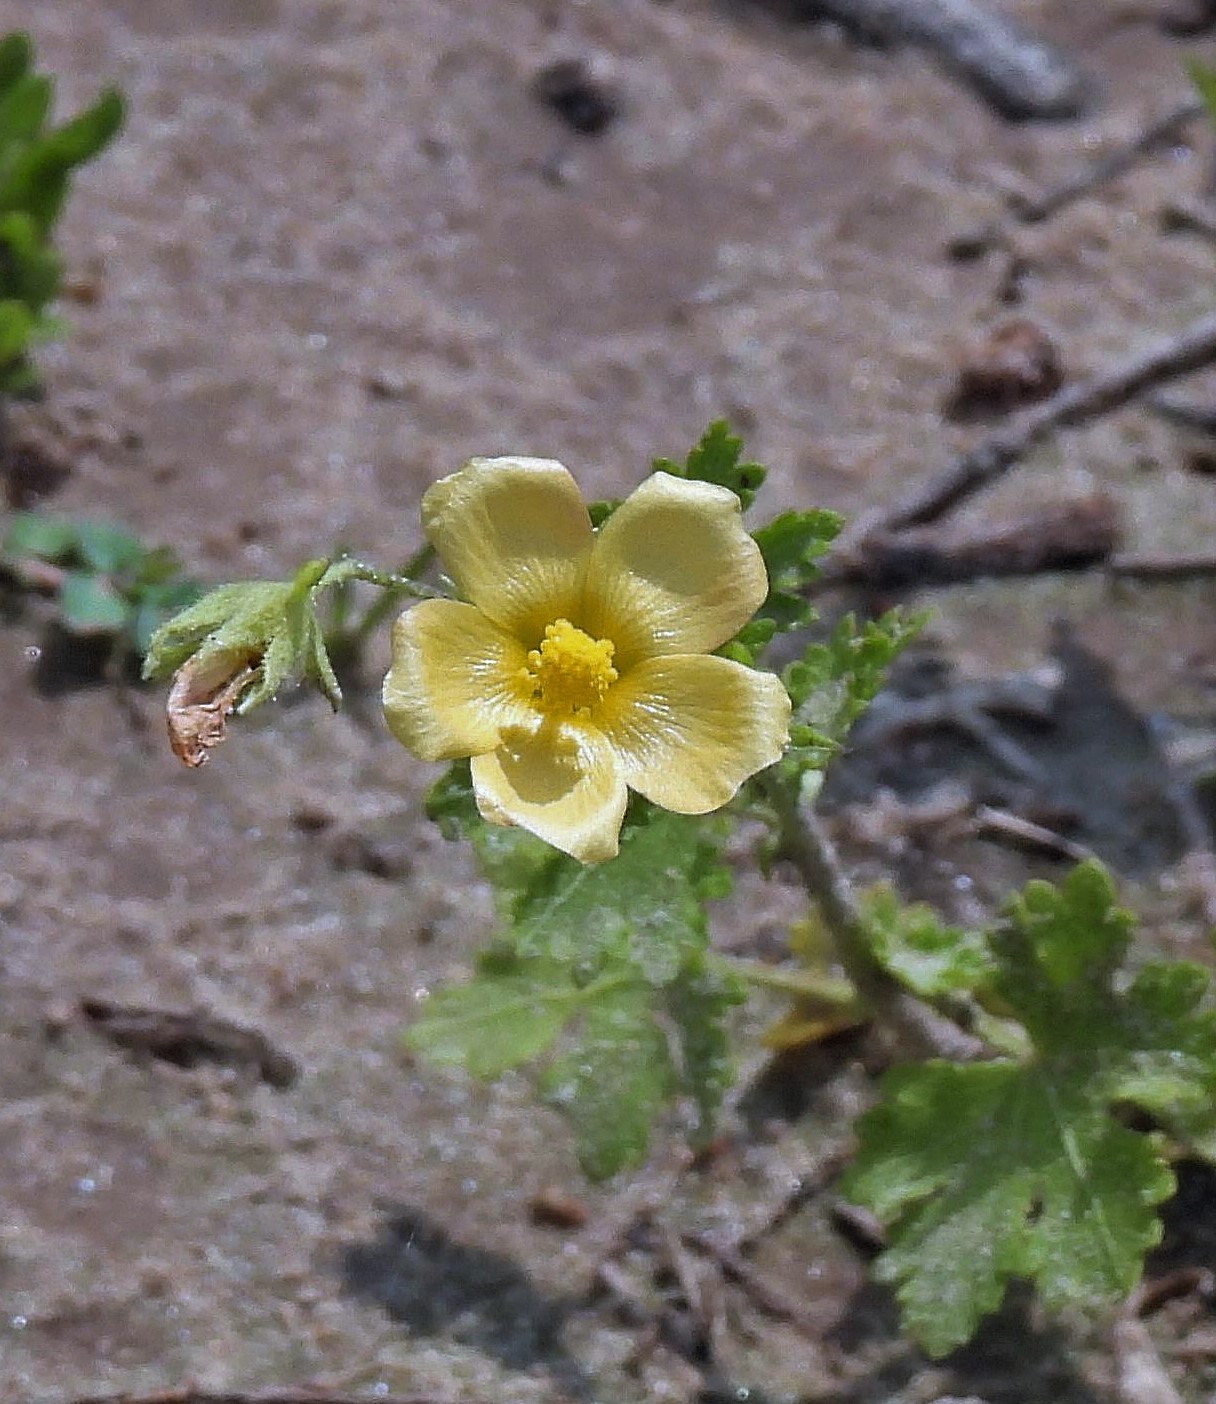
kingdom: Plantae
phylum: Tracheophyta
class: Magnoliopsida
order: Malvales
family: Malvaceae
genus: Modiolastrum
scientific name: Modiolastrum malvifolium
